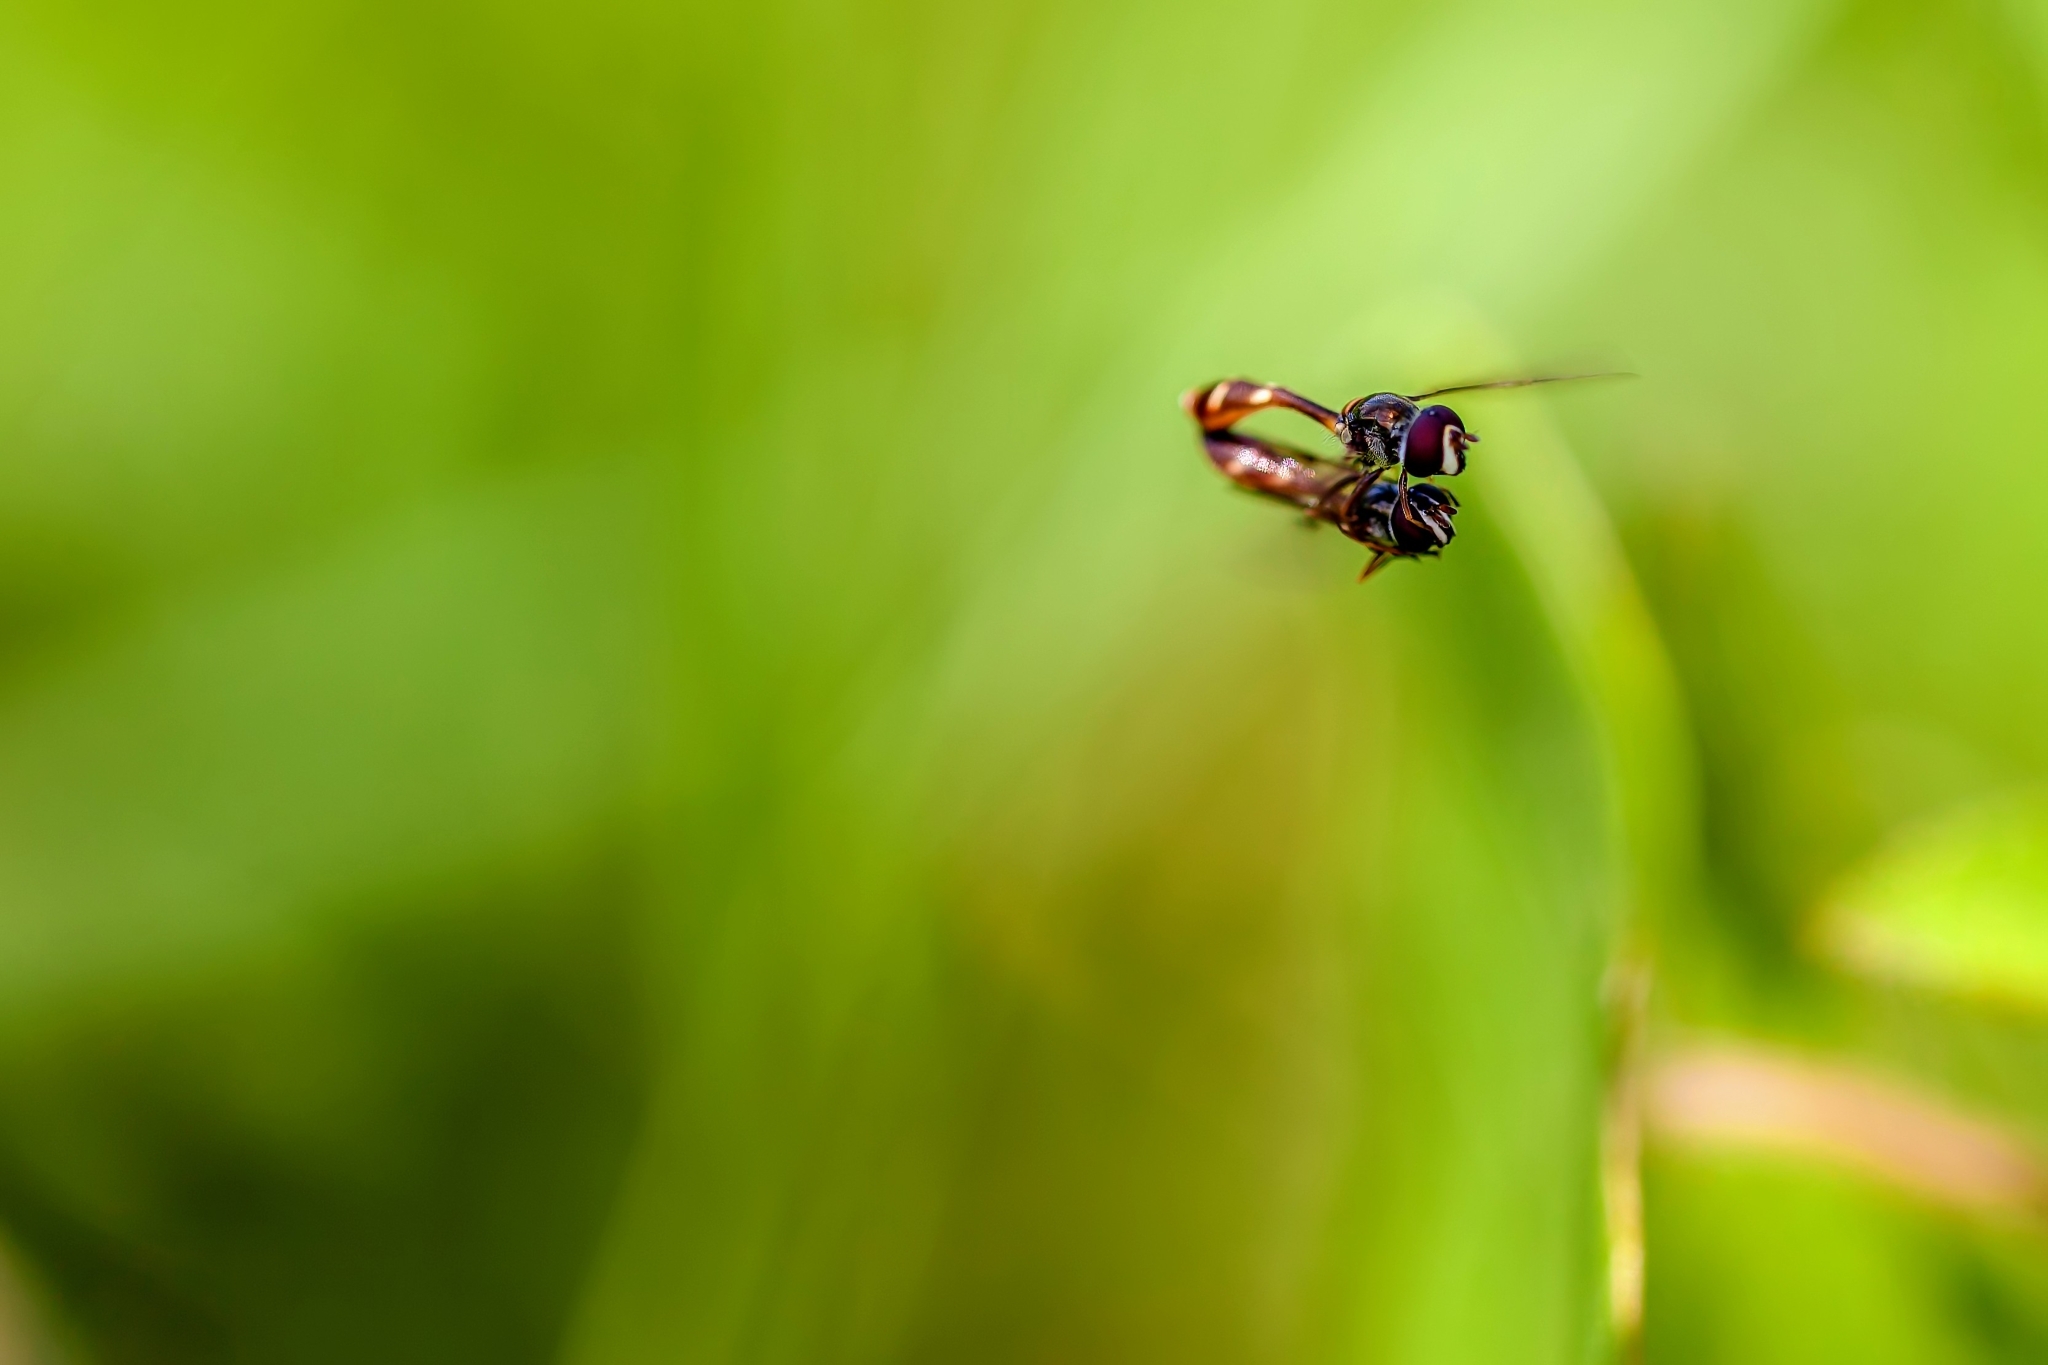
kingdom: Animalia
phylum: Arthropoda
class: Insecta
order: Diptera
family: Syrphidae
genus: Dioprosopa
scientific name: Dioprosopa clavatus
